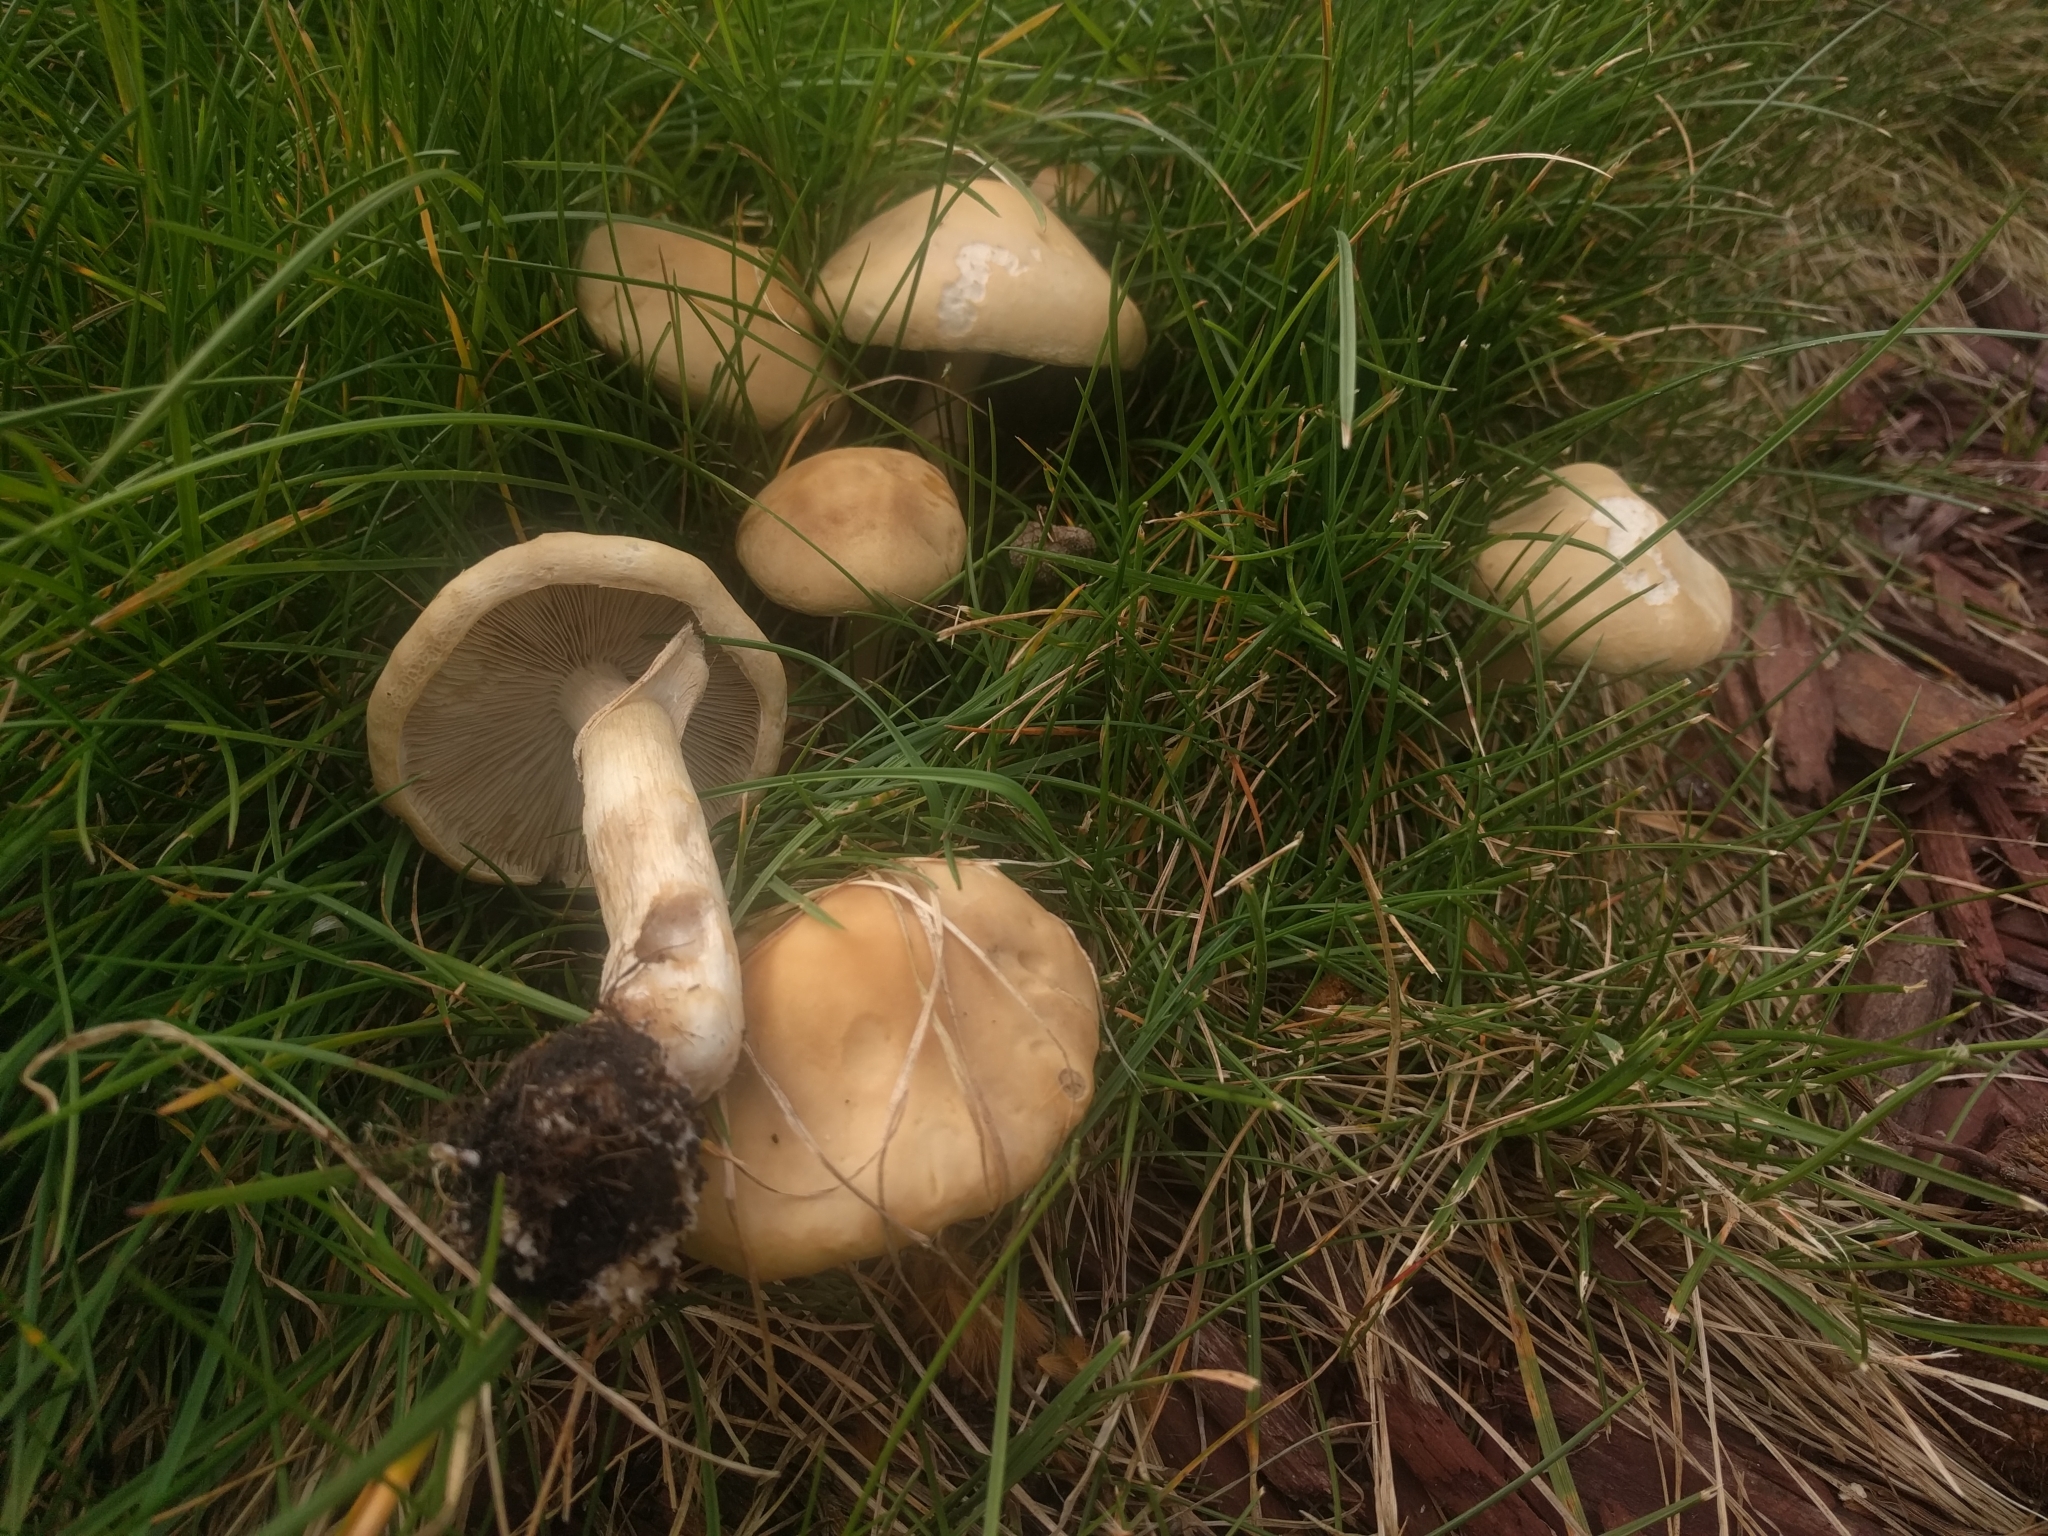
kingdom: Fungi
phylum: Basidiomycota
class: Agaricomycetes
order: Agaricales
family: Strophariaceae
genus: Agrocybe
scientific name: Agrocybe praecox
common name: Spring fieldcap
